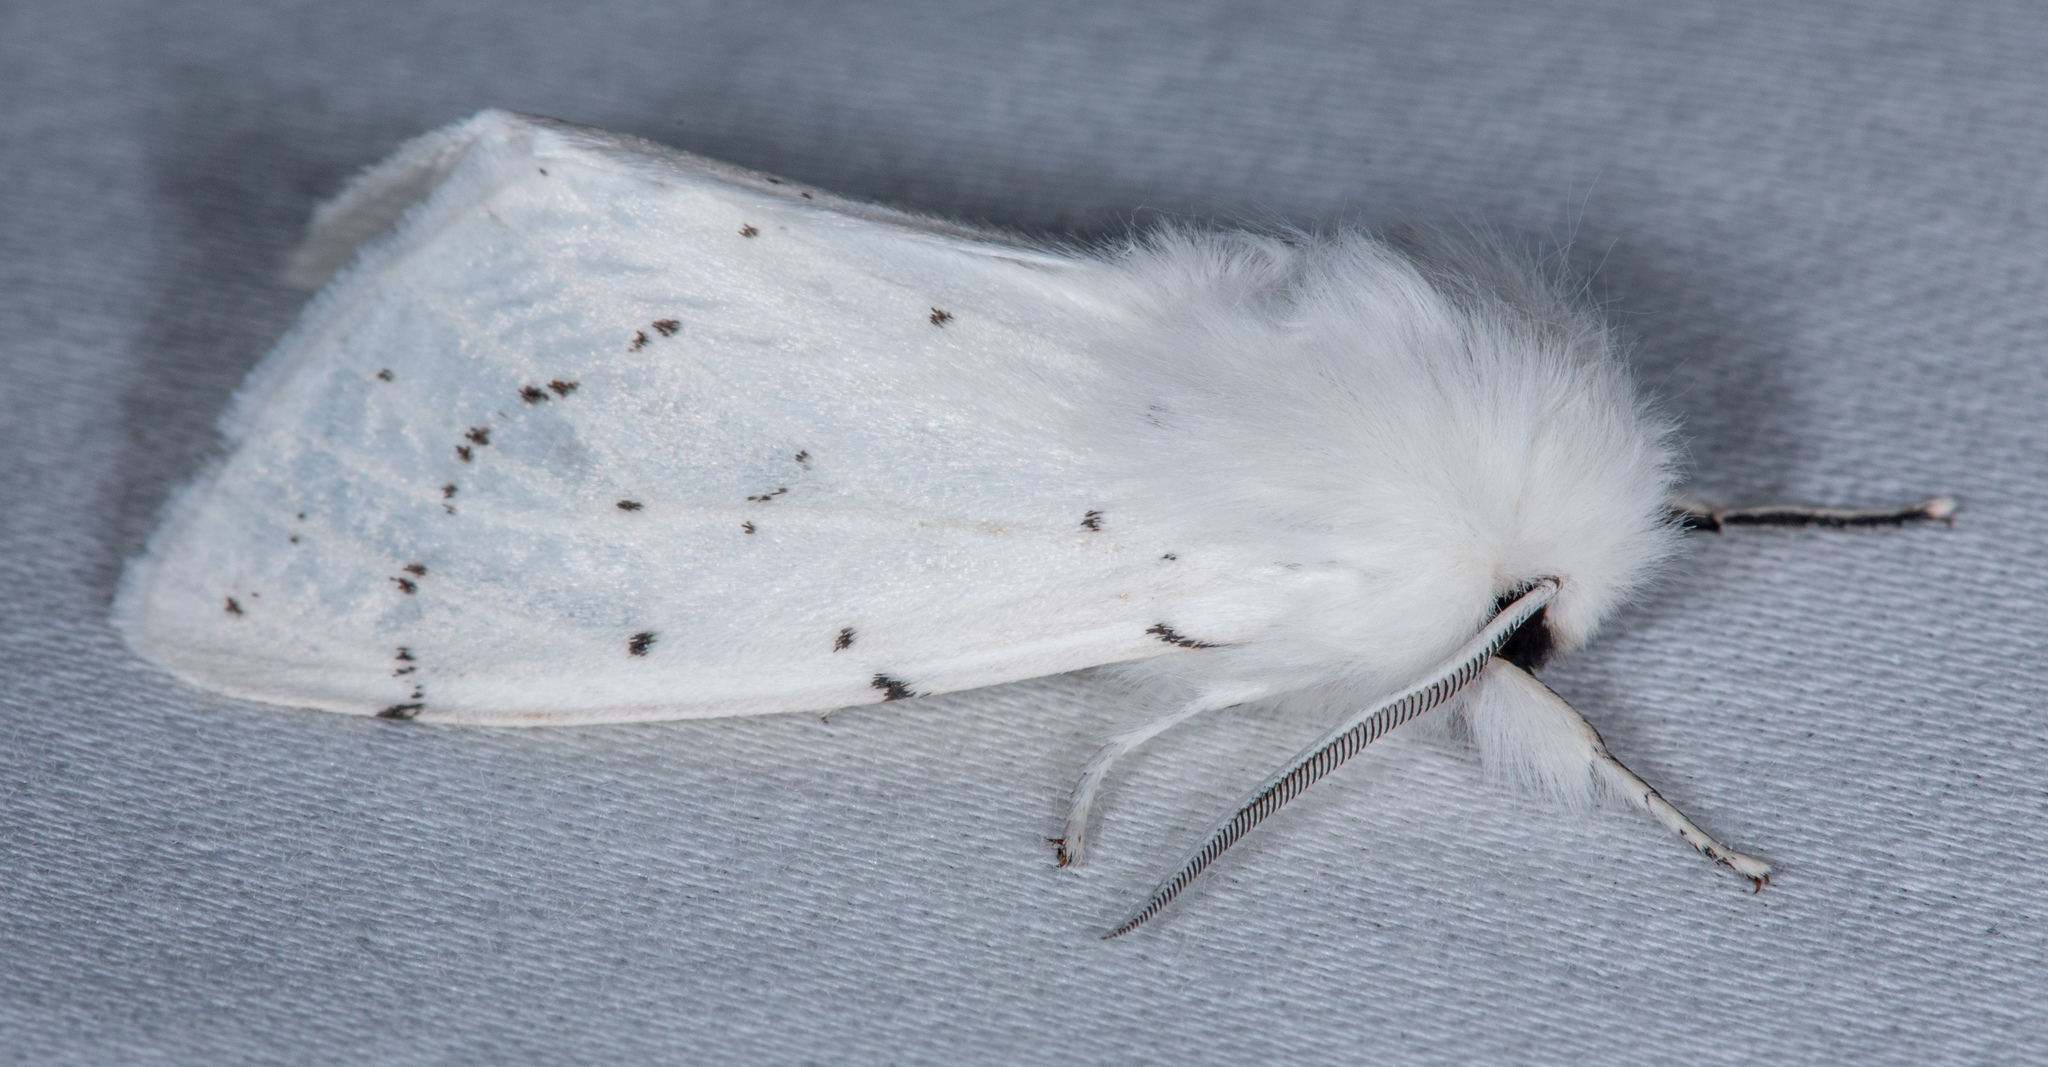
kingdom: Animalia
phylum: Arthropoda
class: Insecta
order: Lepidoptera
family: Erebidae
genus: Spilosoma
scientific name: Spilosoma vestalis
